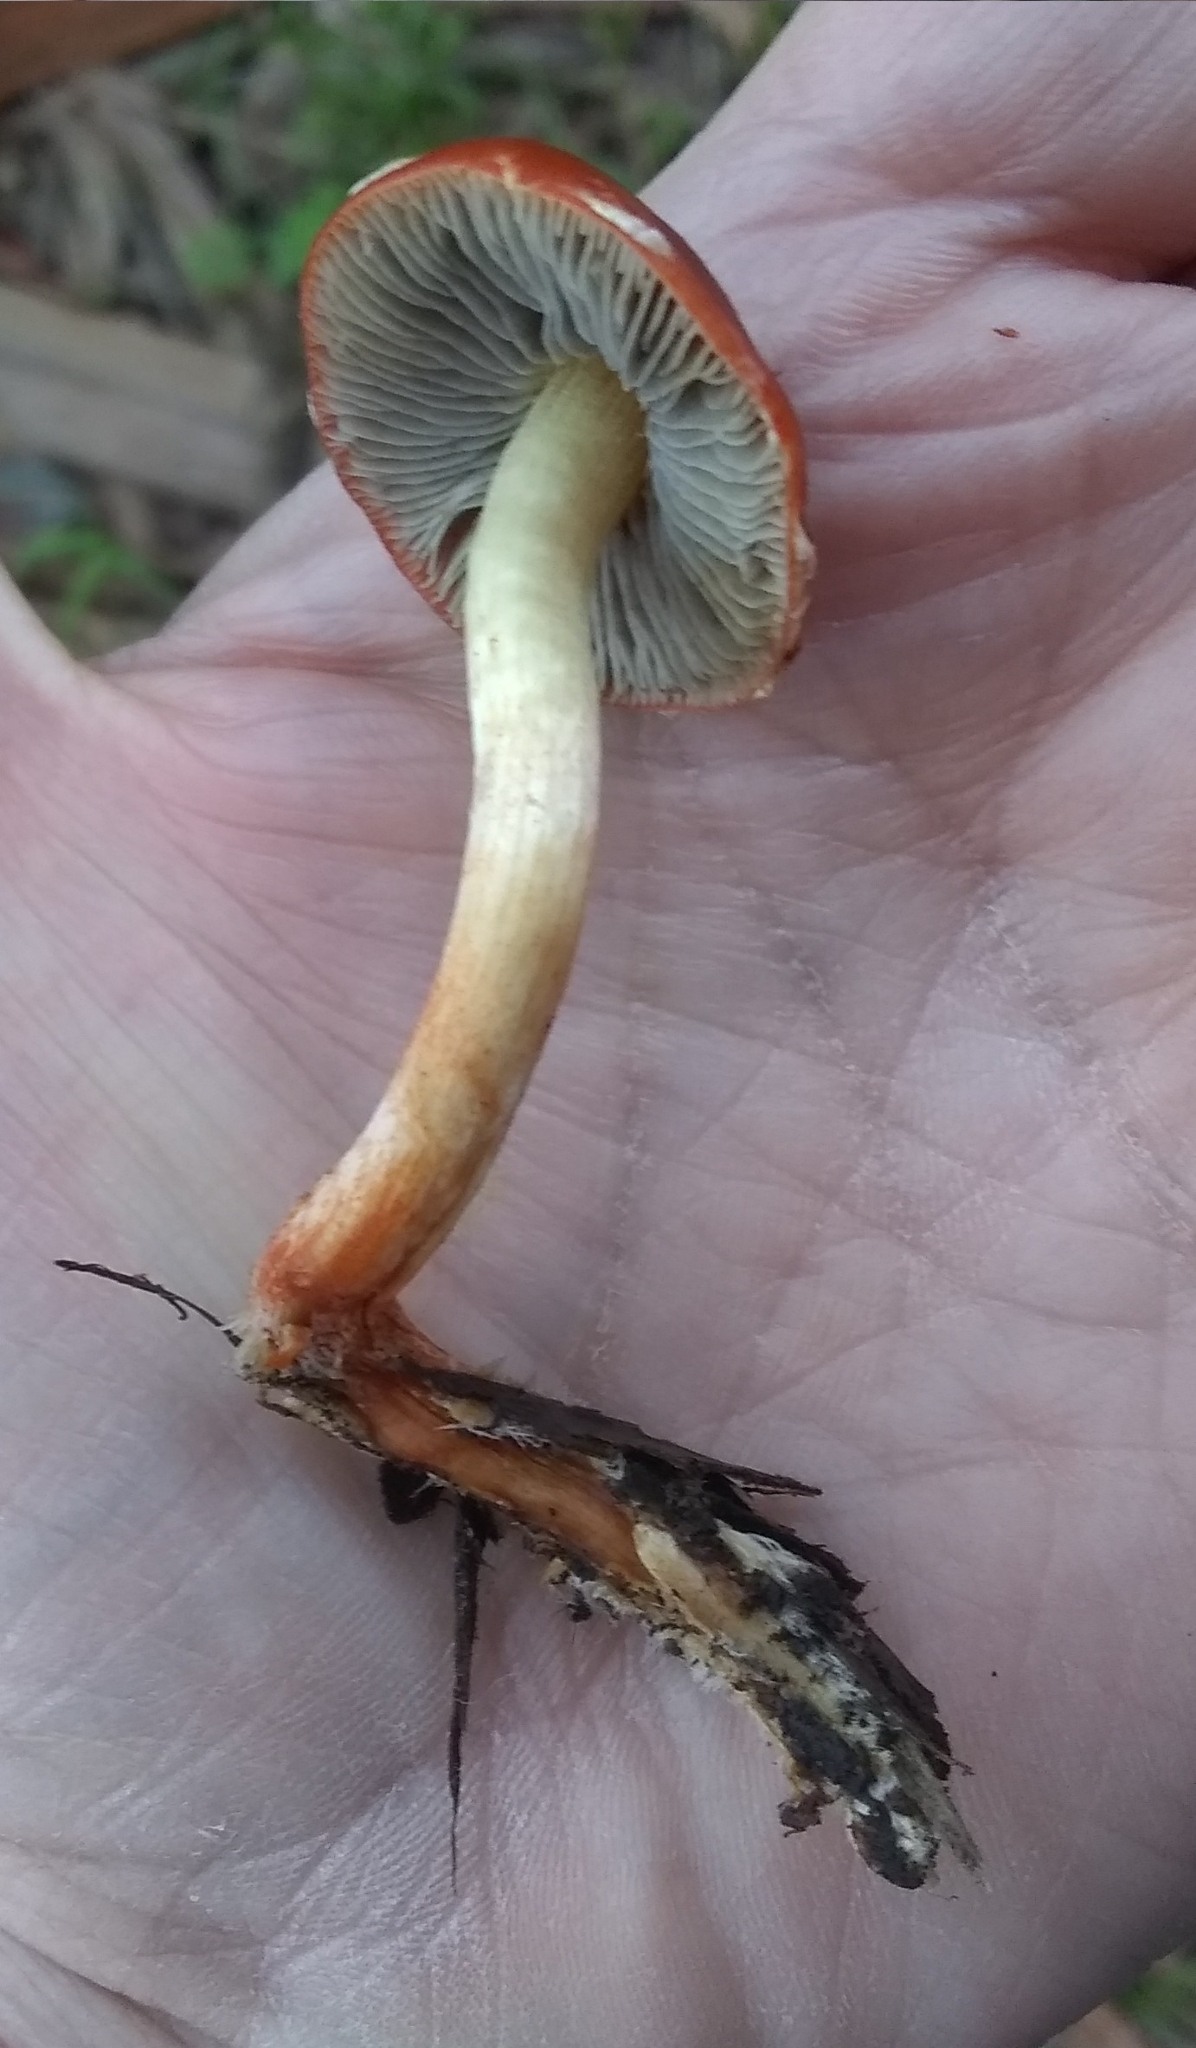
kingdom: Fungi
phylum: Basidiomycota
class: Agaricomycetes
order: Agaricales
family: Strophariaceae
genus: Leratiomyces
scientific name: Leratiomyces ceres
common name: Redlead roundhead
